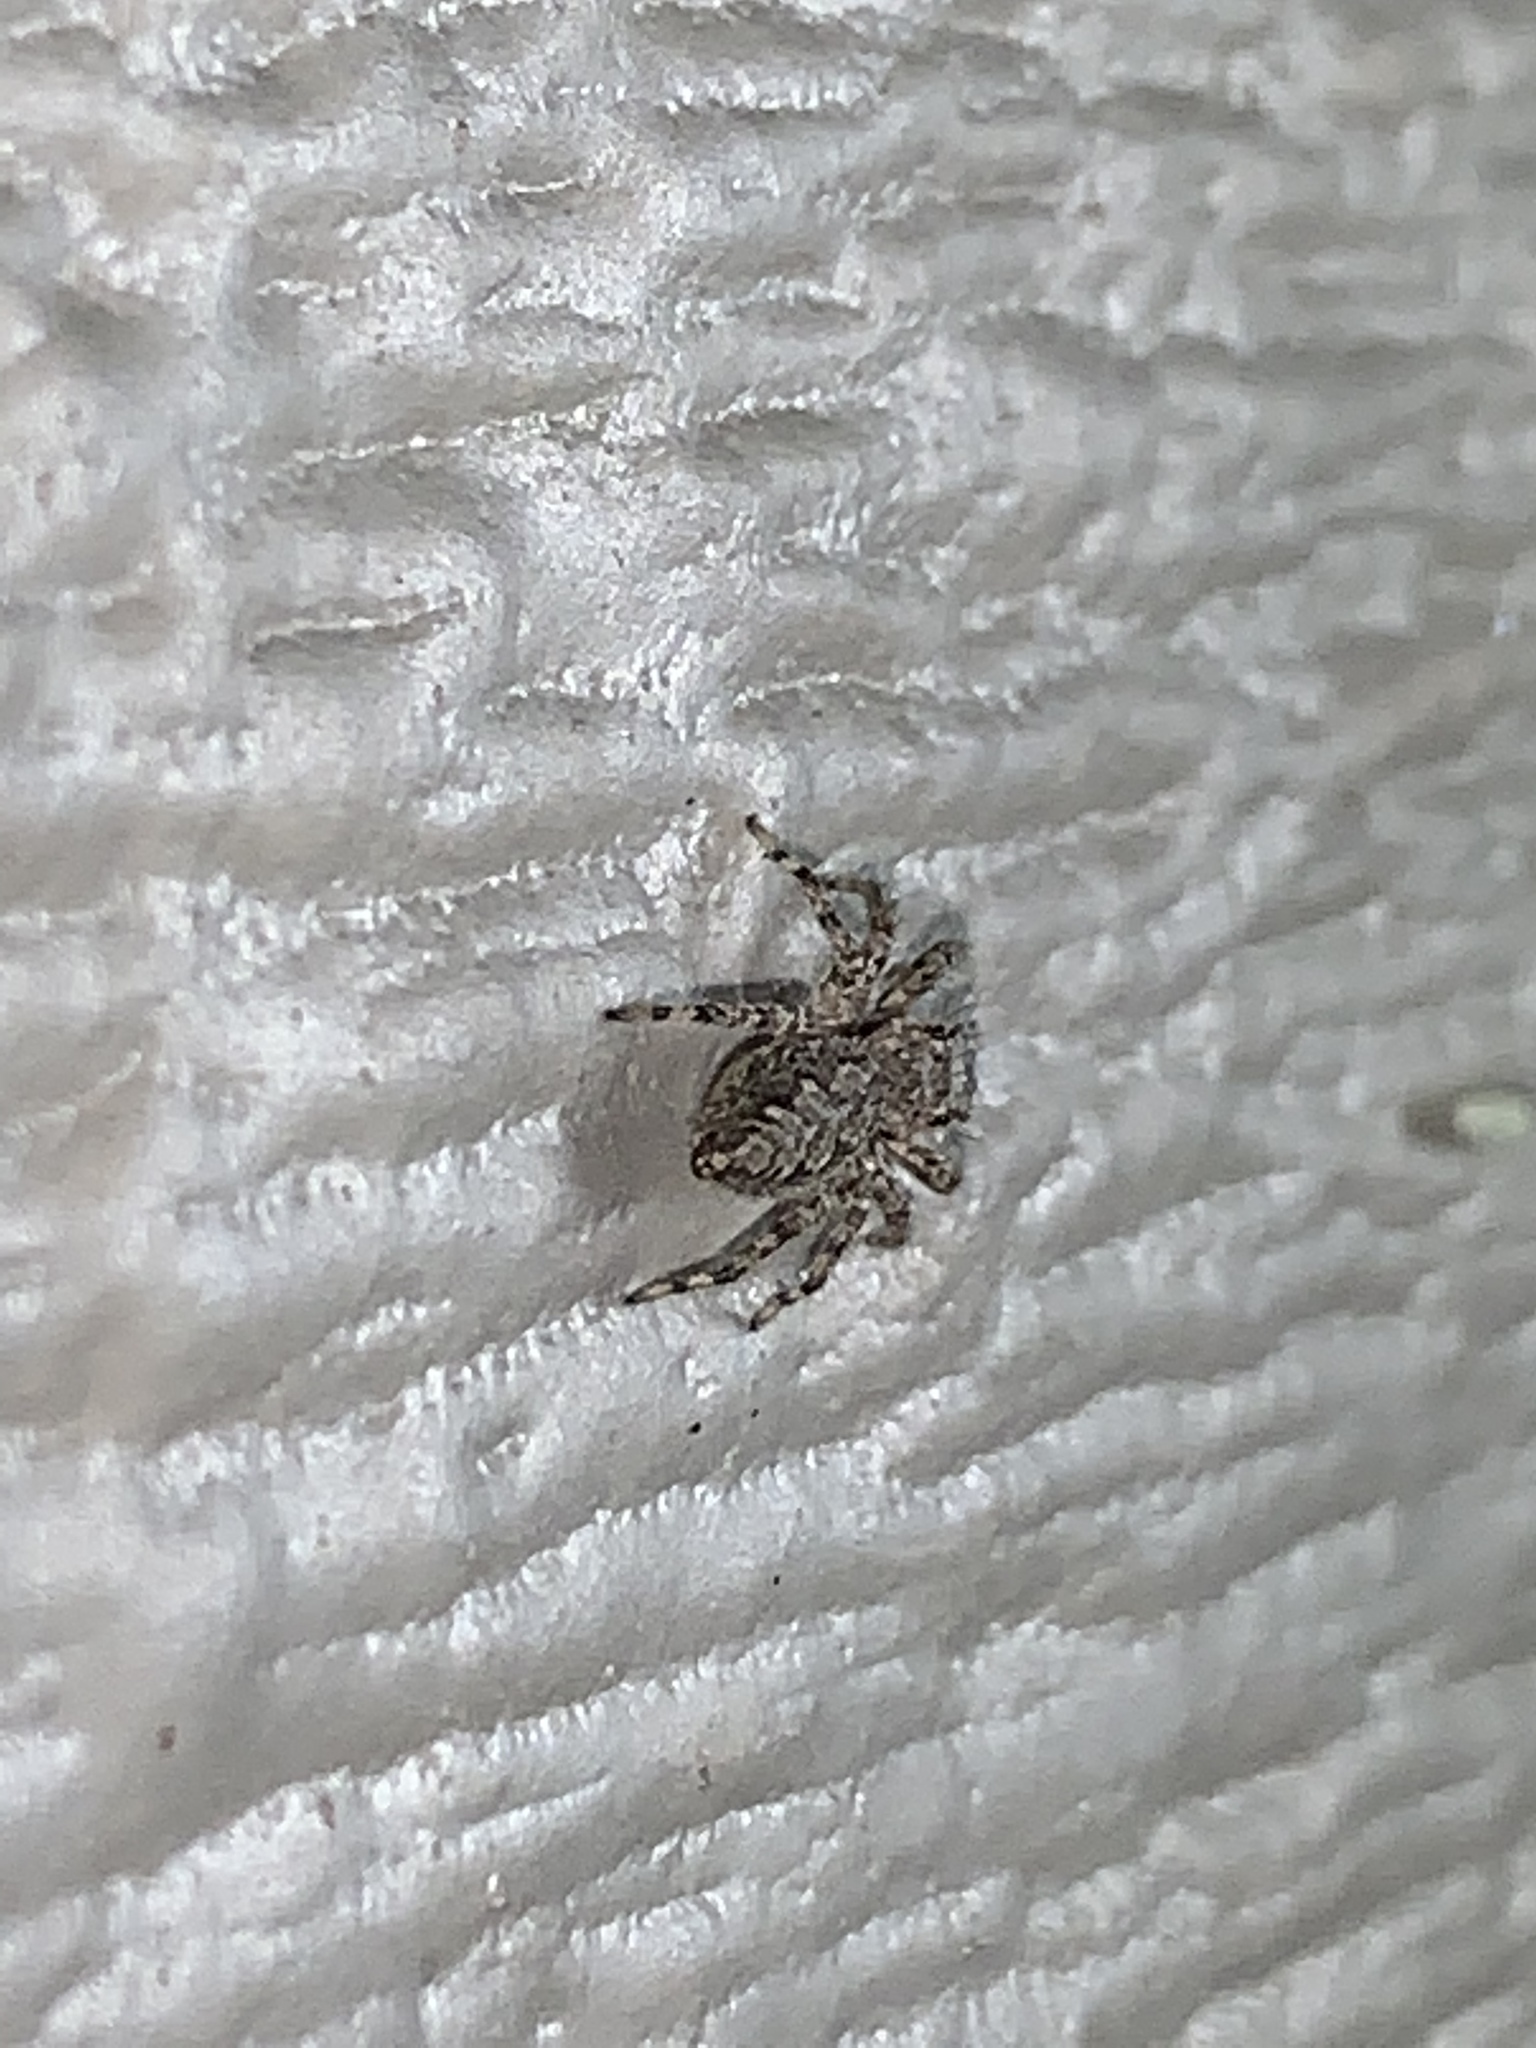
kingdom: Animalia
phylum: Arthropoda
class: Arachnida
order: Araneae
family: Salticidae
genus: Platycryptus
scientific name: Platycryptus undatus
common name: Tan jumping spider
